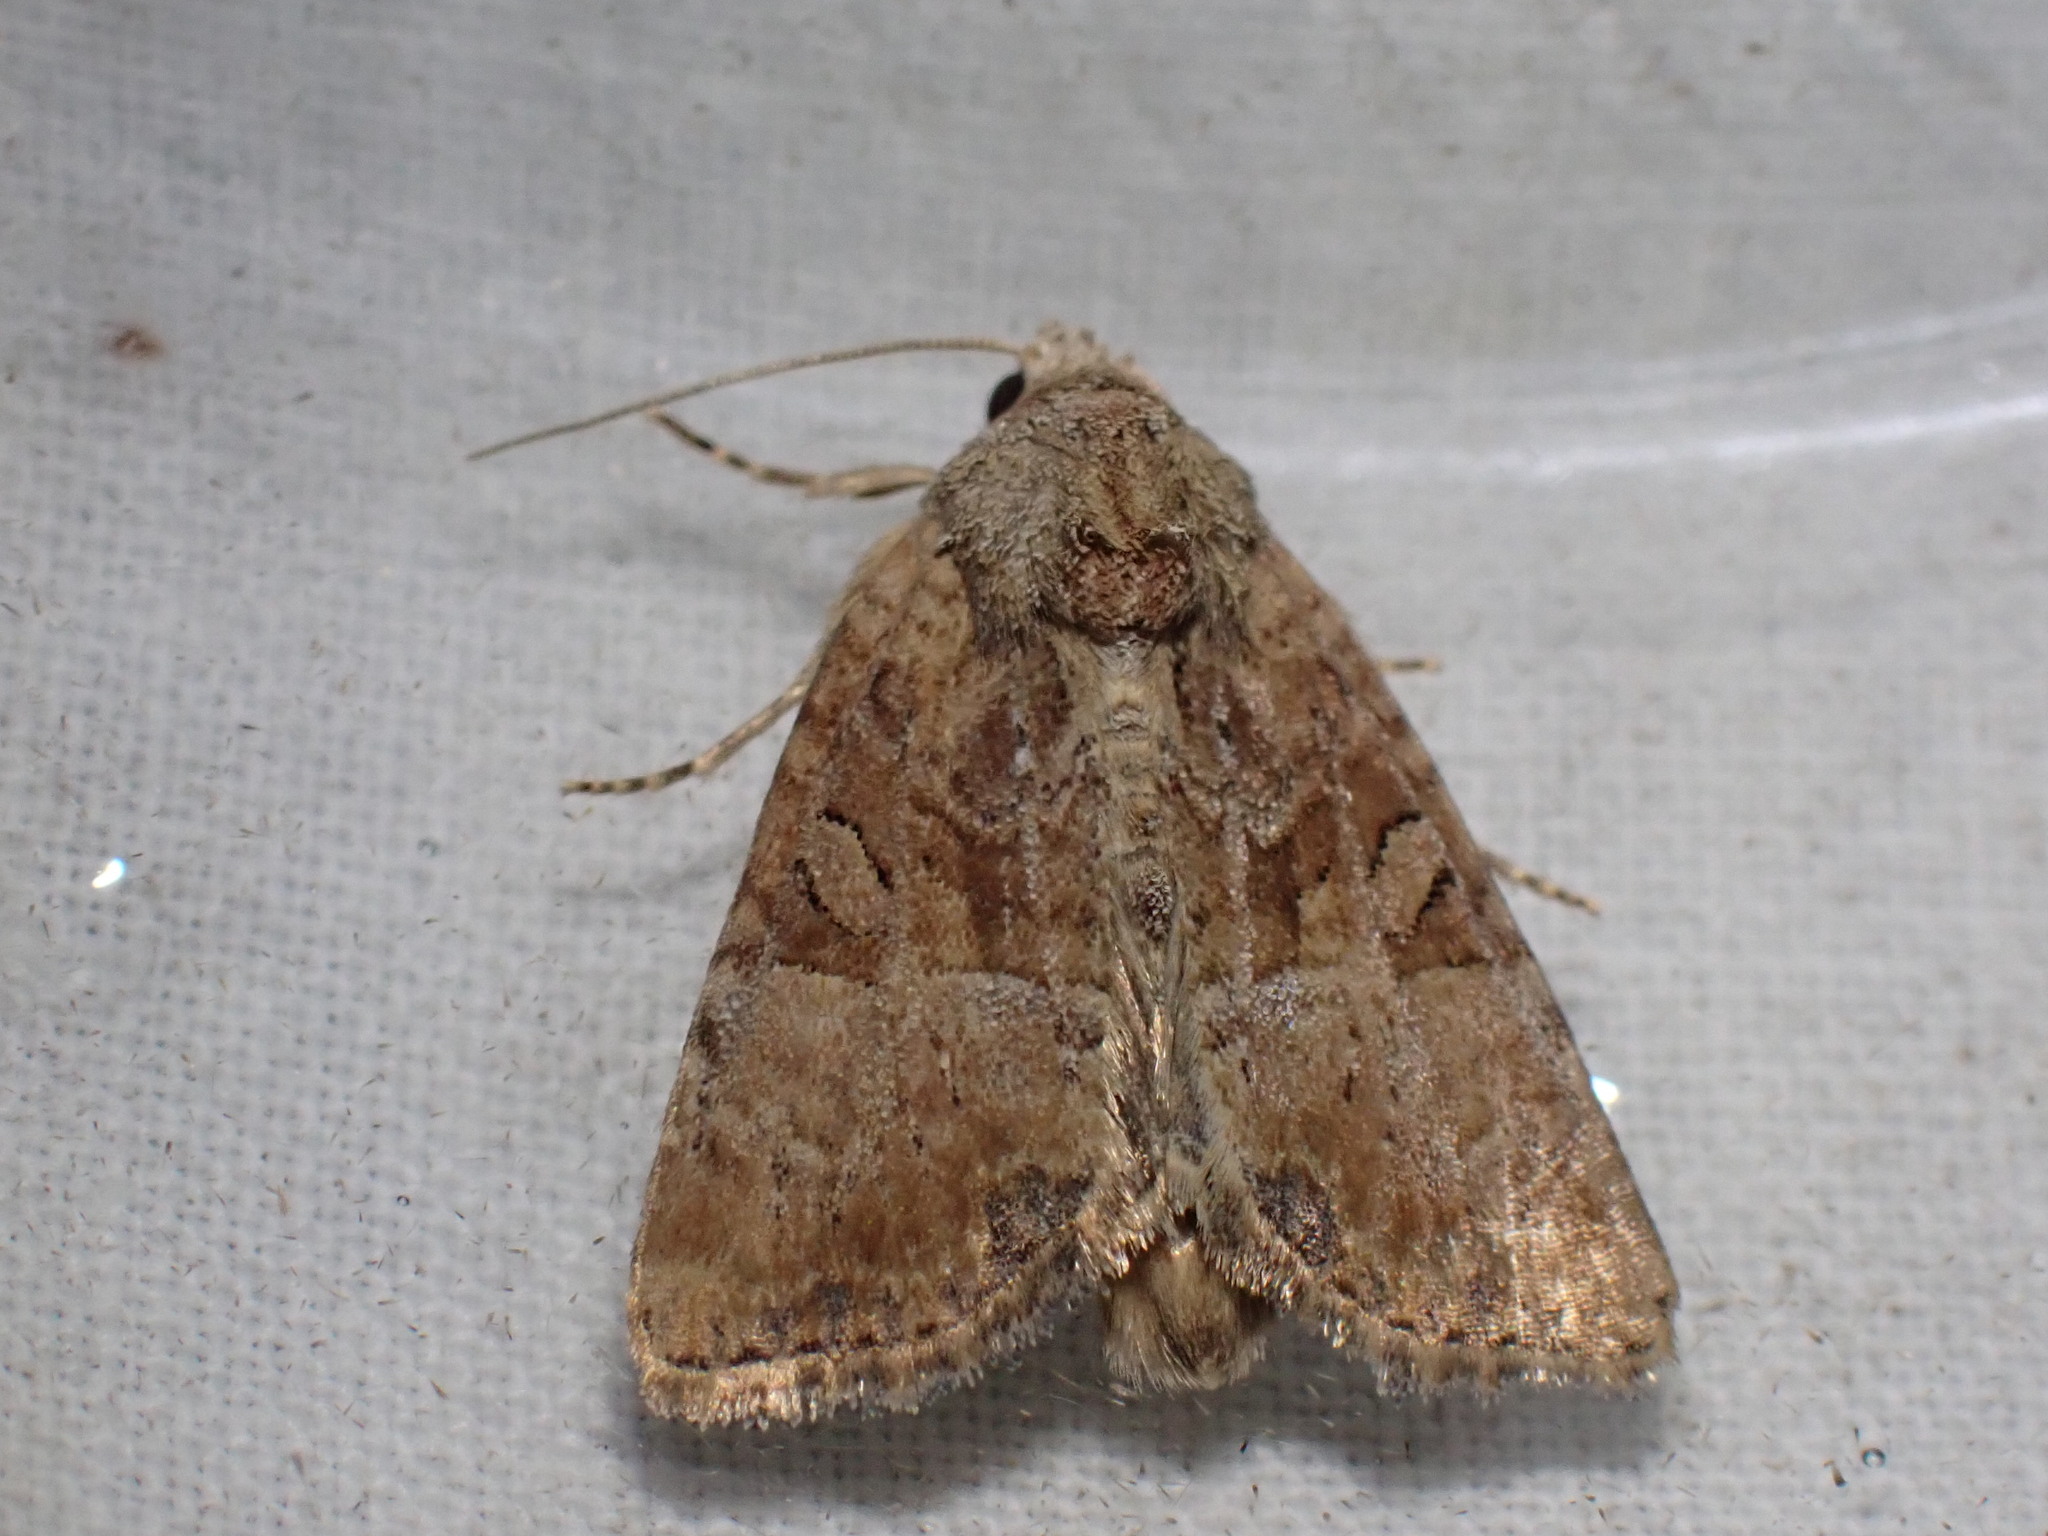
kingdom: Animalia
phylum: Arthropoda
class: Insecta
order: Lepidoptera
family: Noctuidae
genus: Mesoligia
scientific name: Mesoligia furuncula
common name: Cloaked minor
